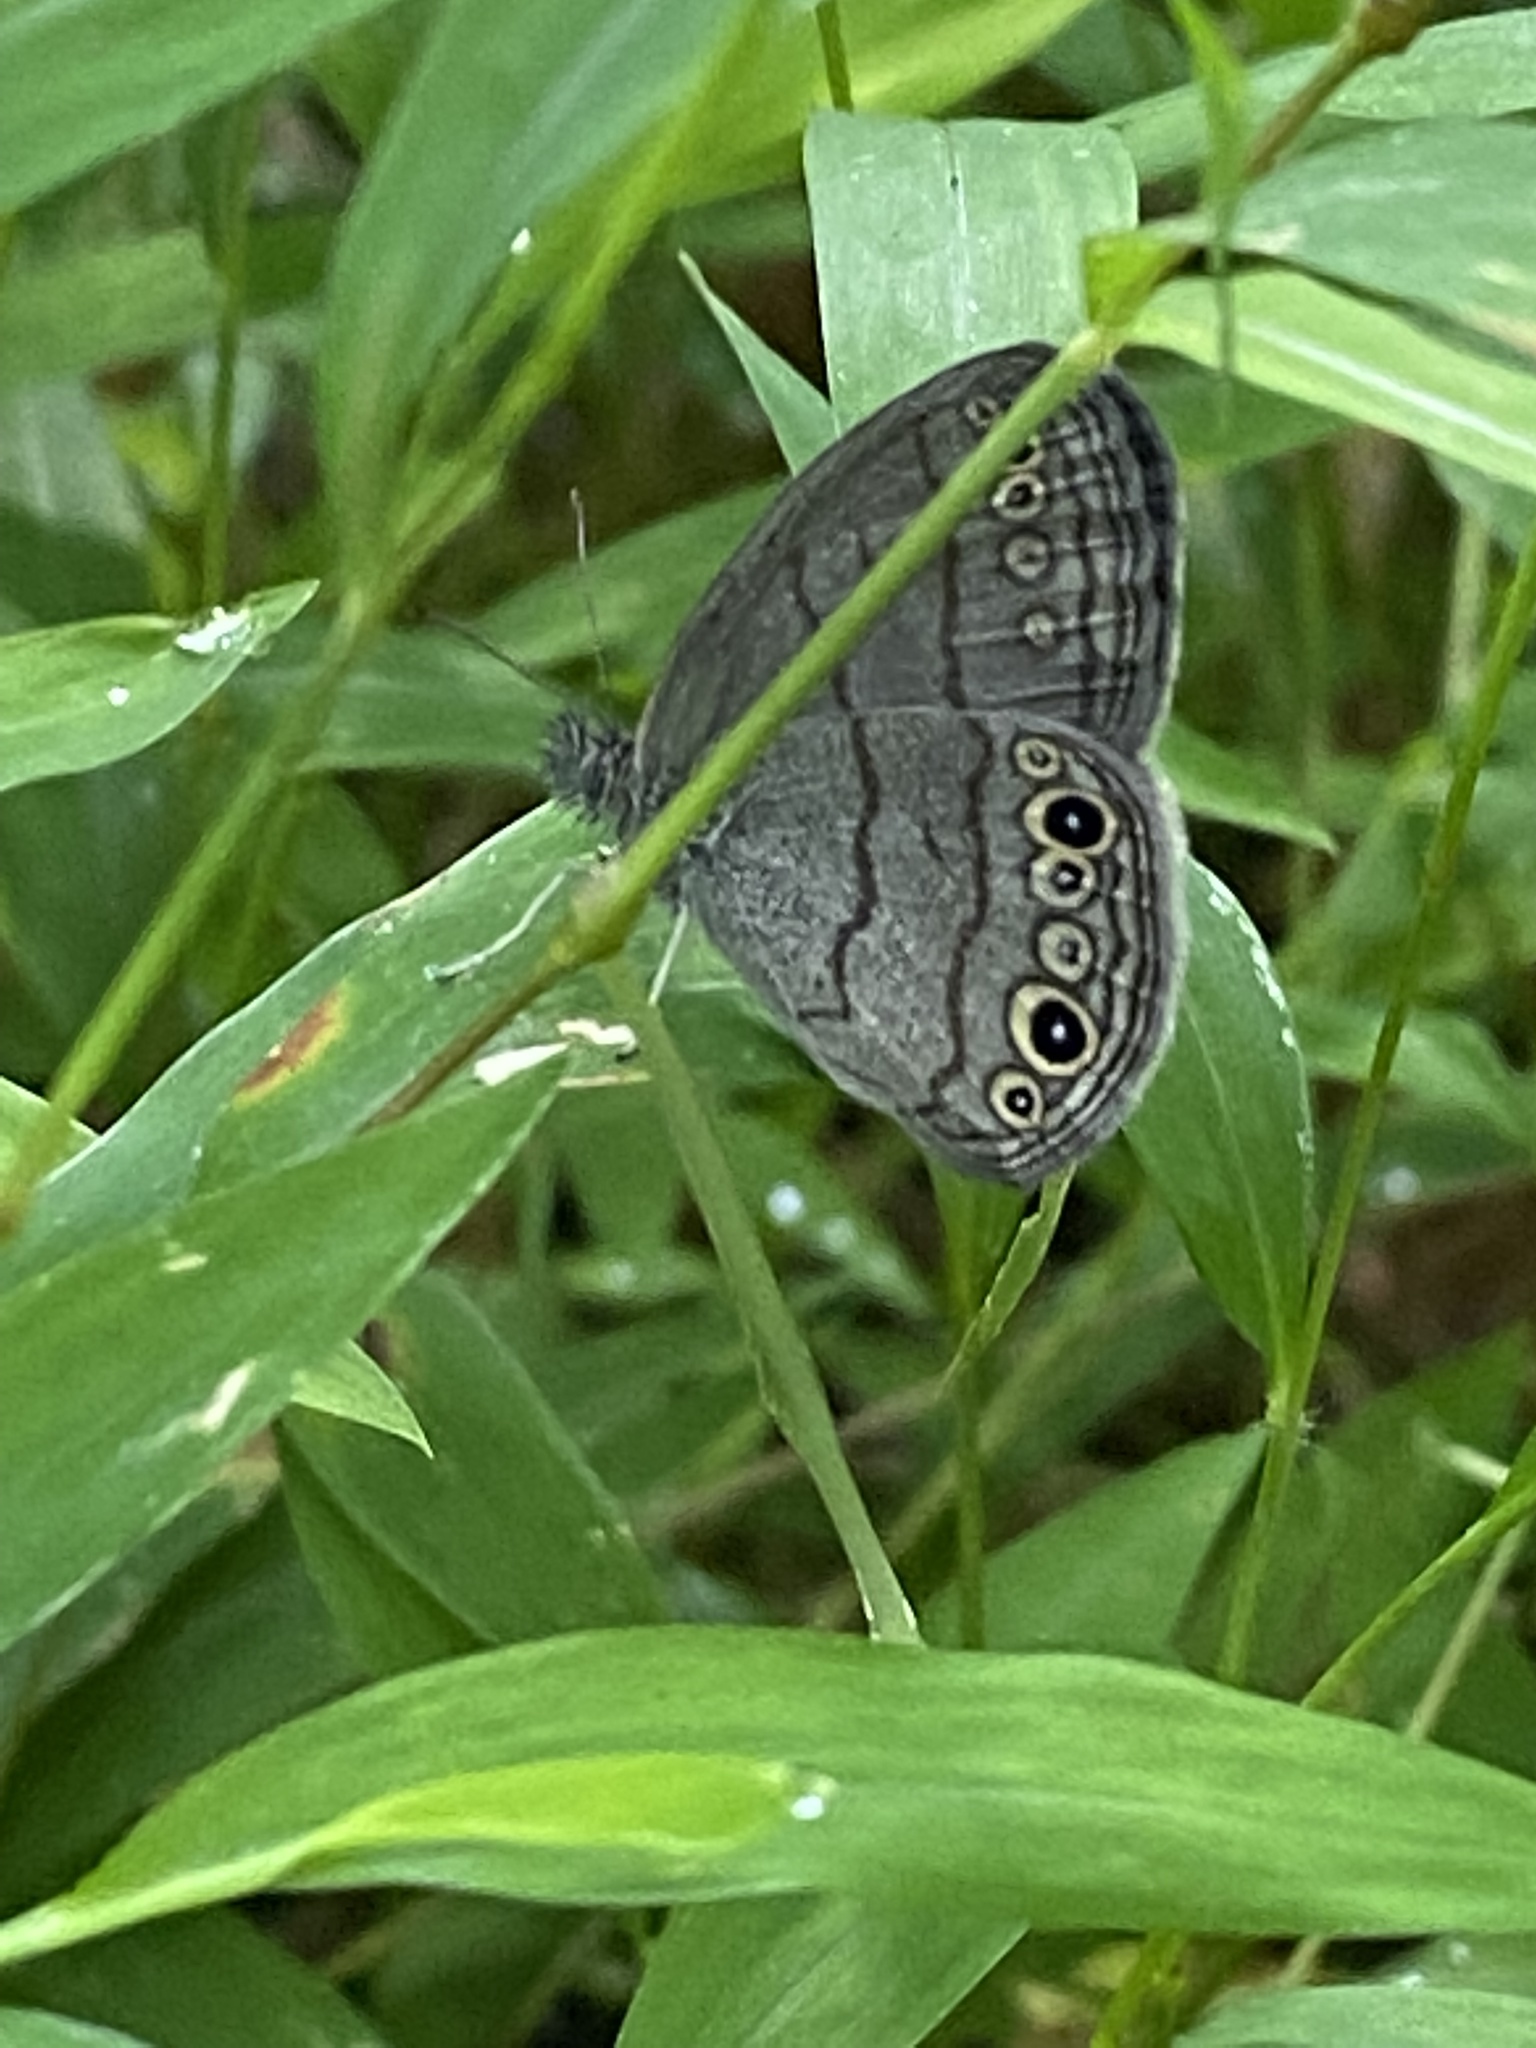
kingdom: Animalia
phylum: Arthropoda
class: Insecta
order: Lepidoptera
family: Nymphalidae
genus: Hermeuptychia
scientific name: Hermeuptychia hermes
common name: Hermes satyr
